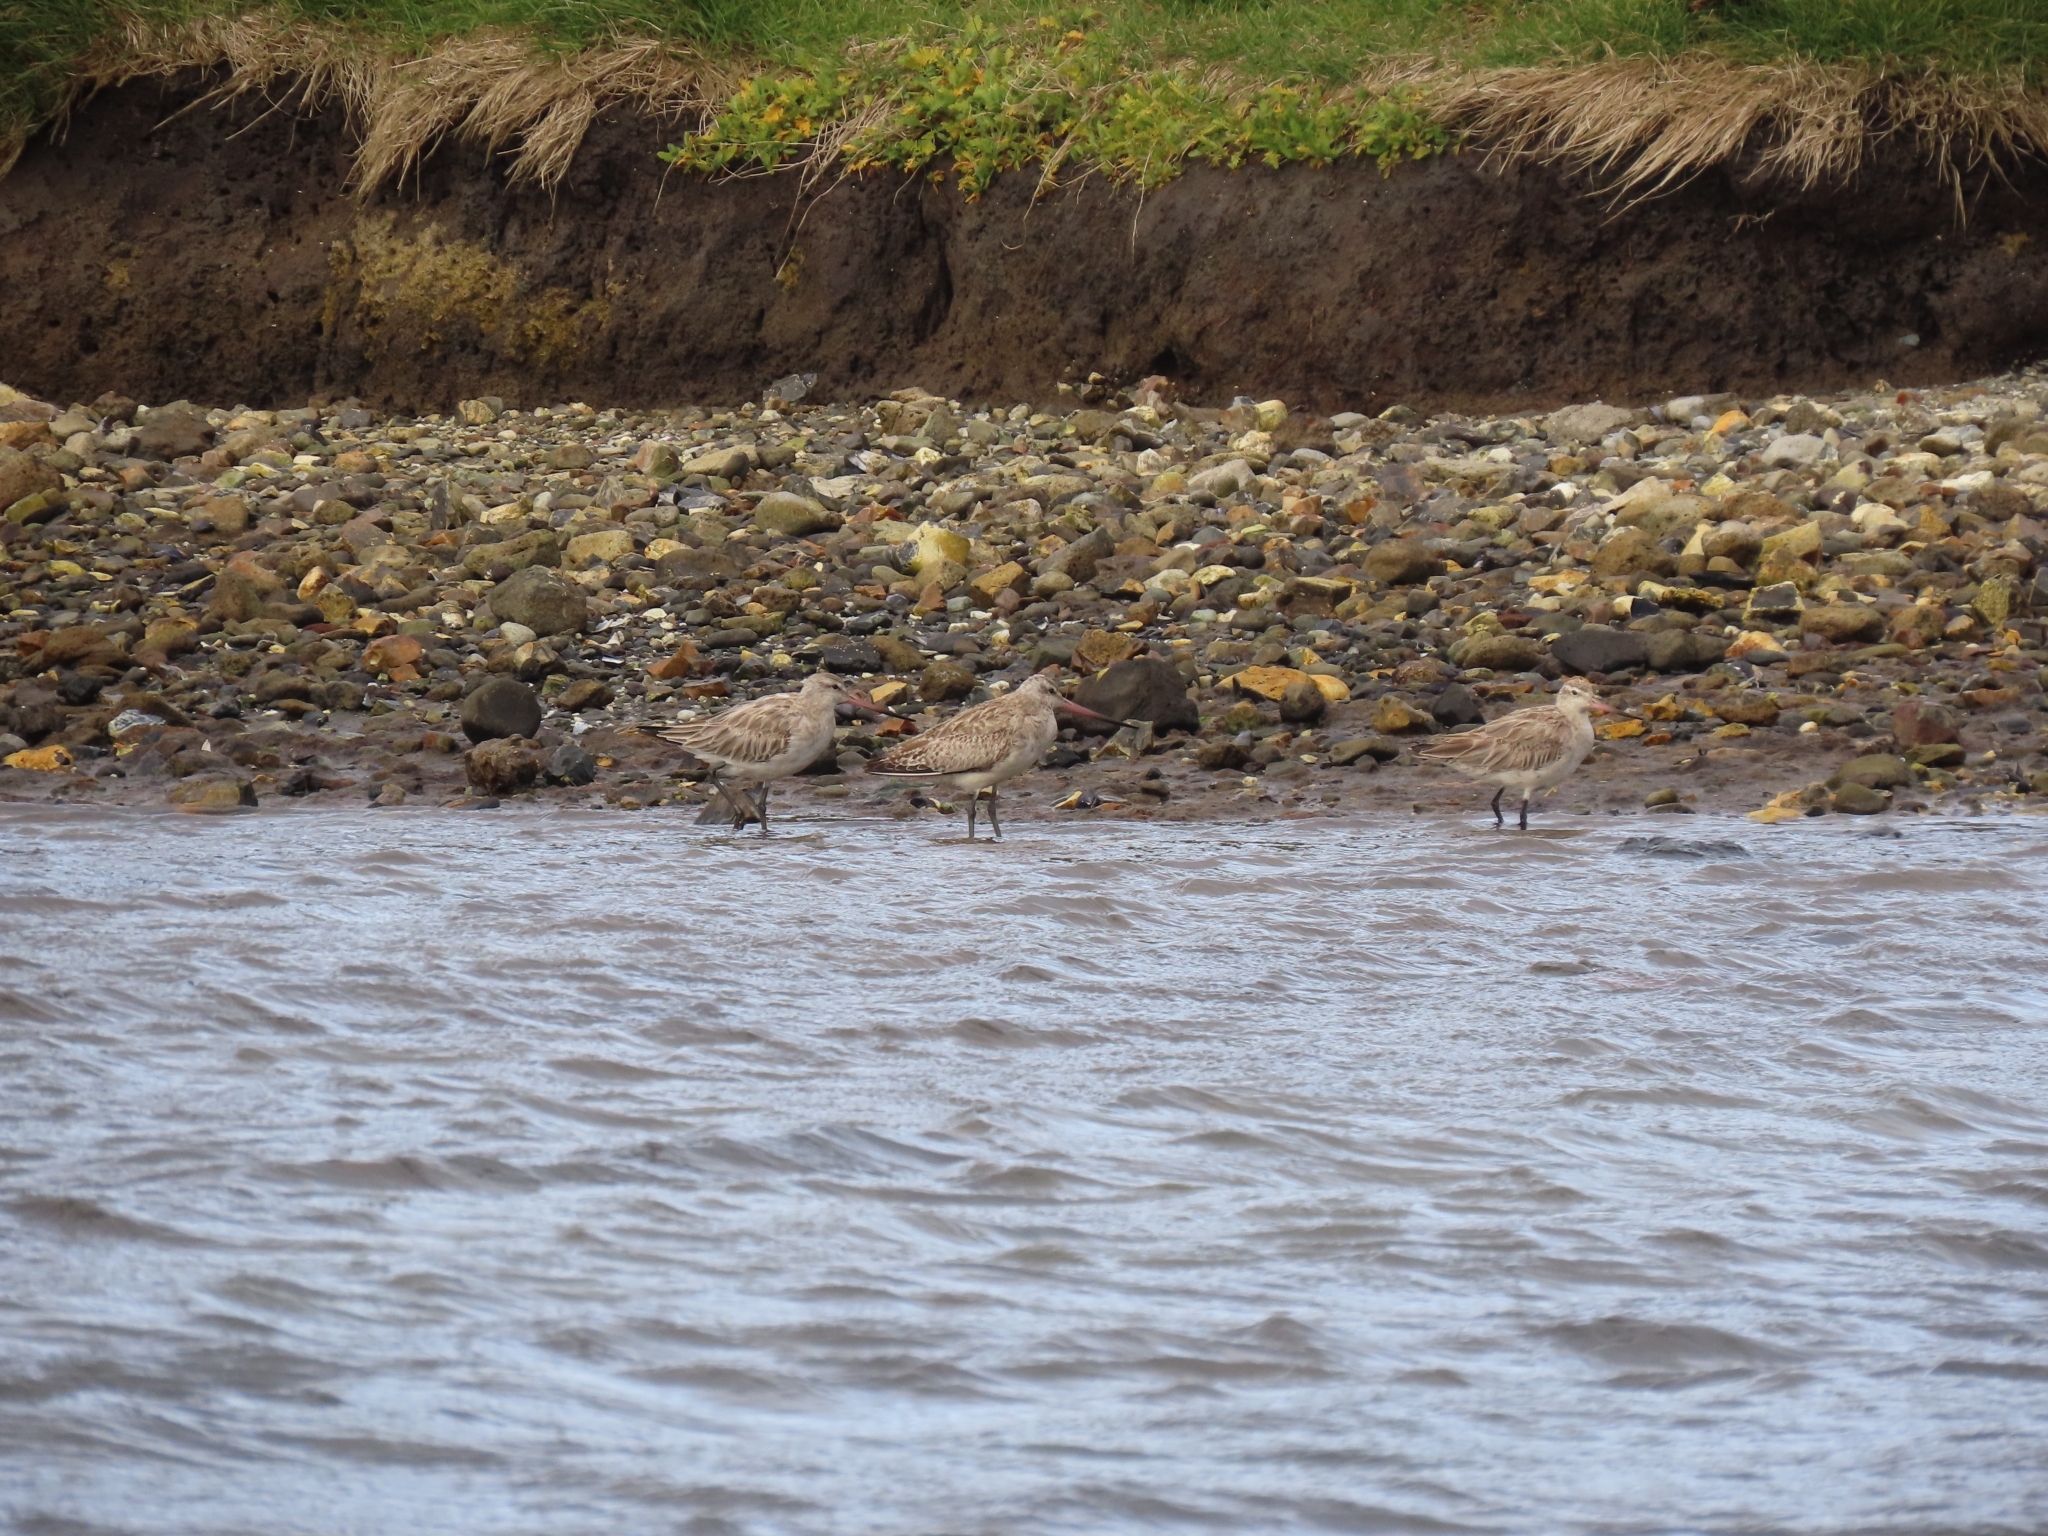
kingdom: Animalia
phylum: Chordata
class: Aves
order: Charadriiformes
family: Scolopacidae
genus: Limosa
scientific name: Limosa lapponica
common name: Bar-tailed godwit
